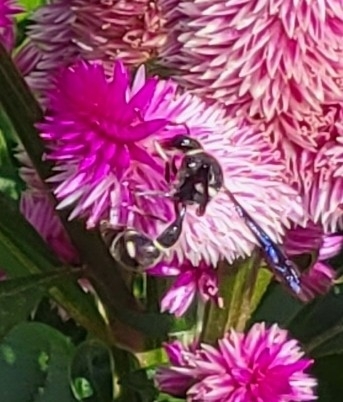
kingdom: Animalia
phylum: Arthropoda
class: Insecta
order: Hymenoptera
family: Vespidae
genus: Eumenes
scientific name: Eumenes fraternus
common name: Fraternal potter wasp
